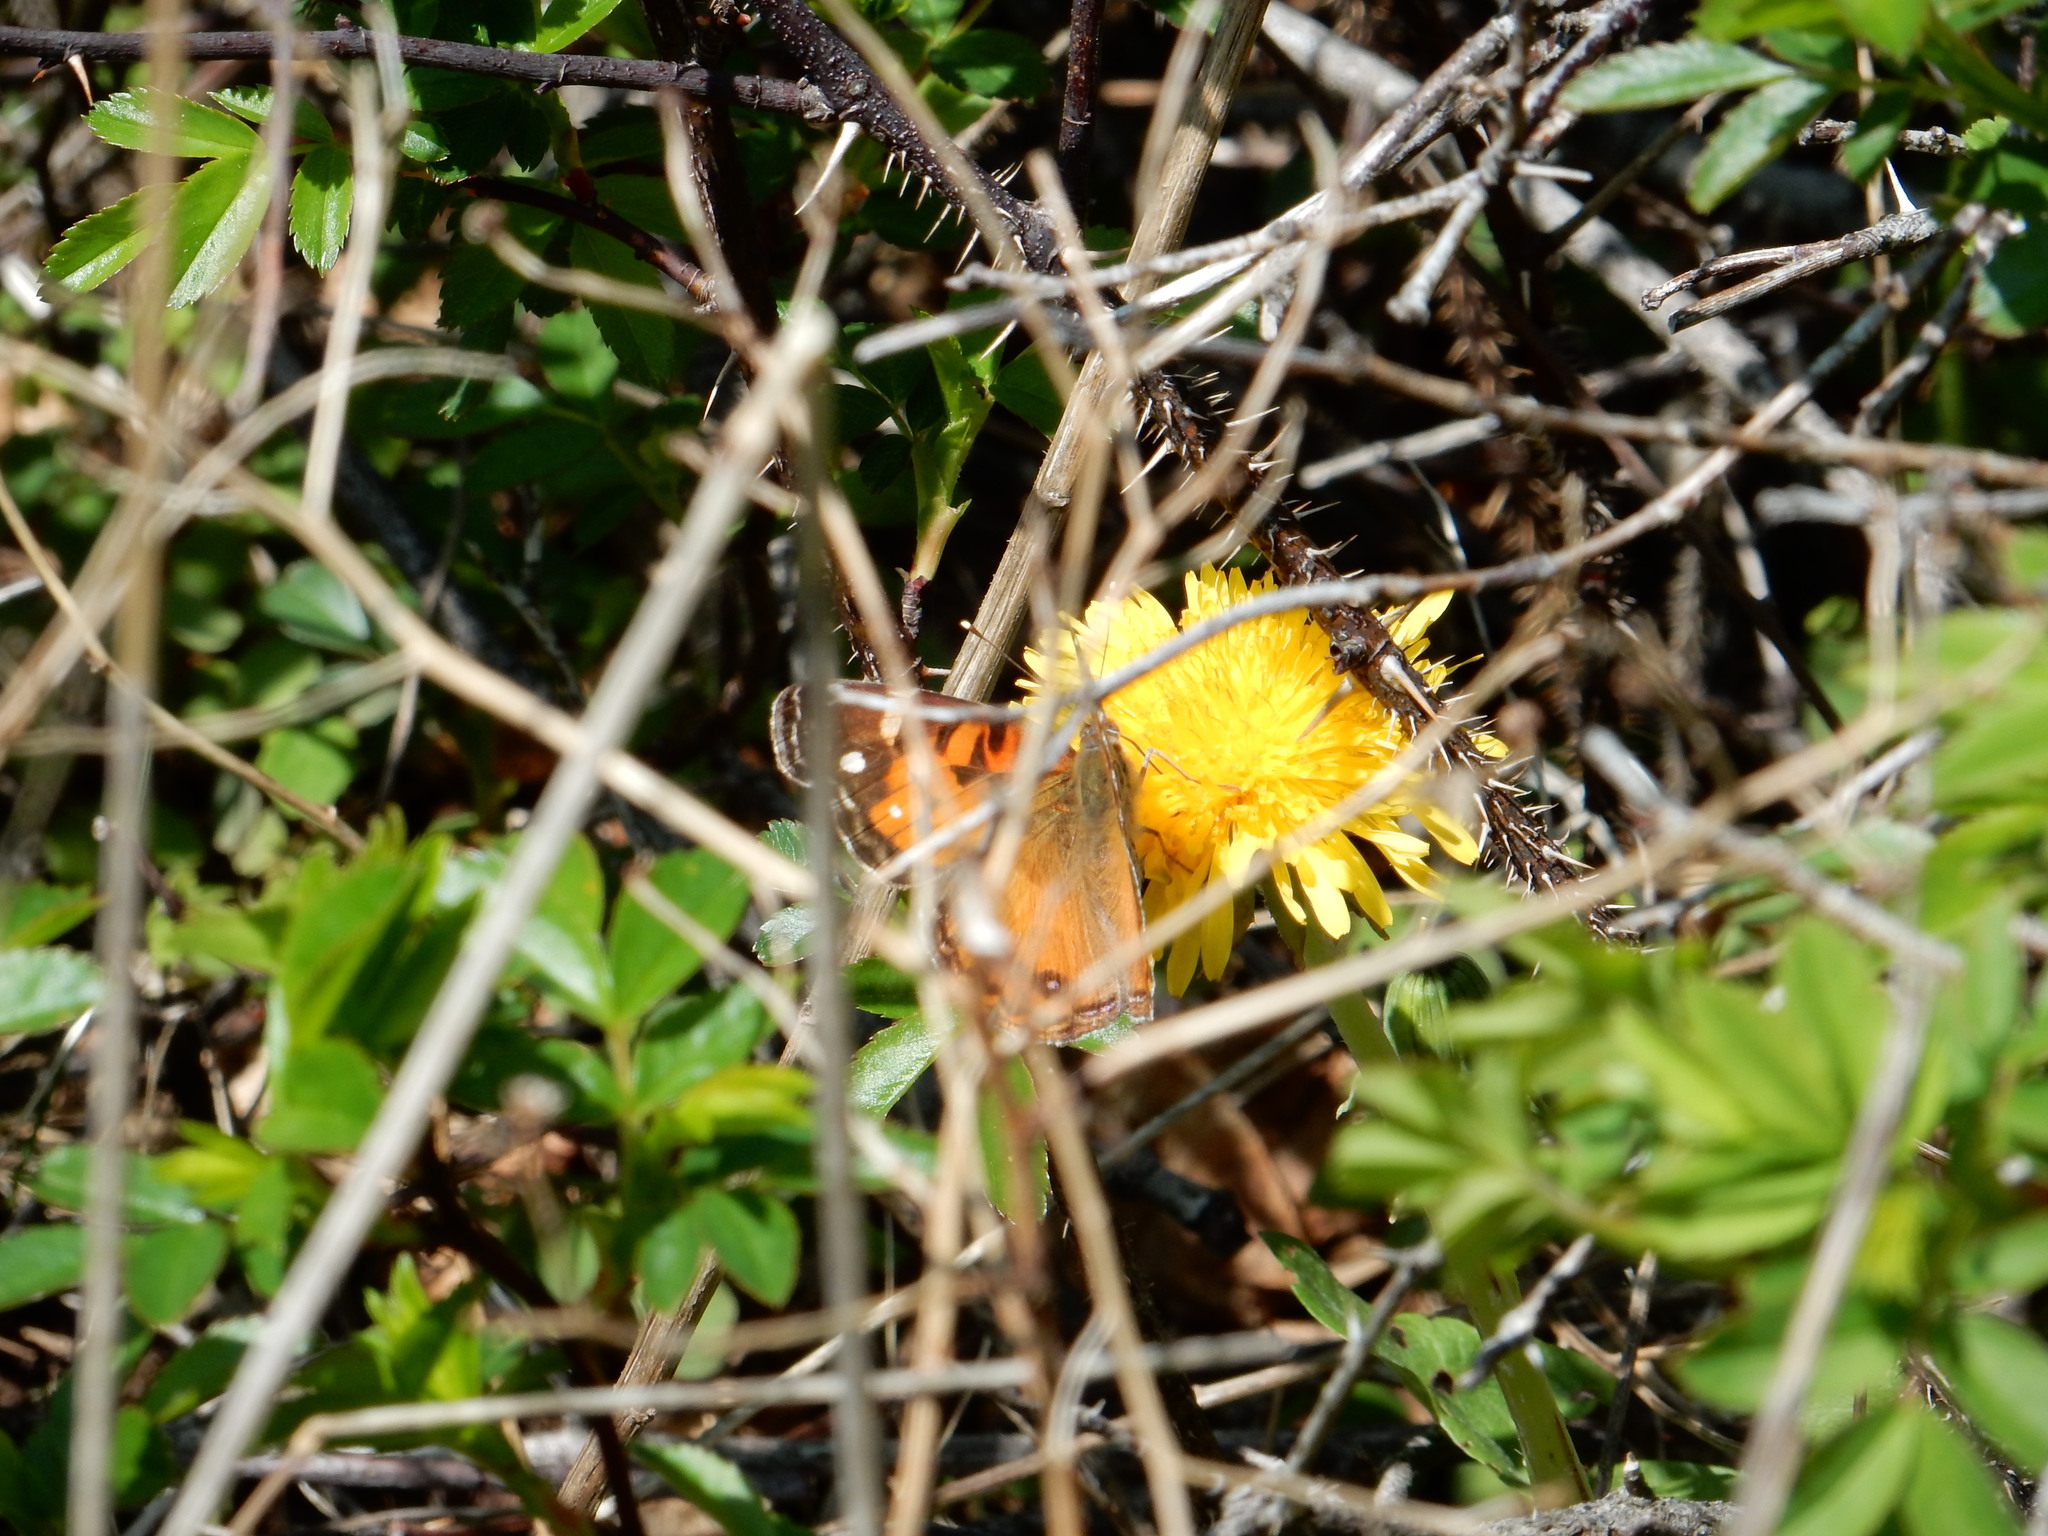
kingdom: Animalia
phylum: Arthropoda
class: Insecta
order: Lepidoptera
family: Nymphalidae
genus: Vanessa
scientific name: Vanessa virginiensis
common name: American lady
